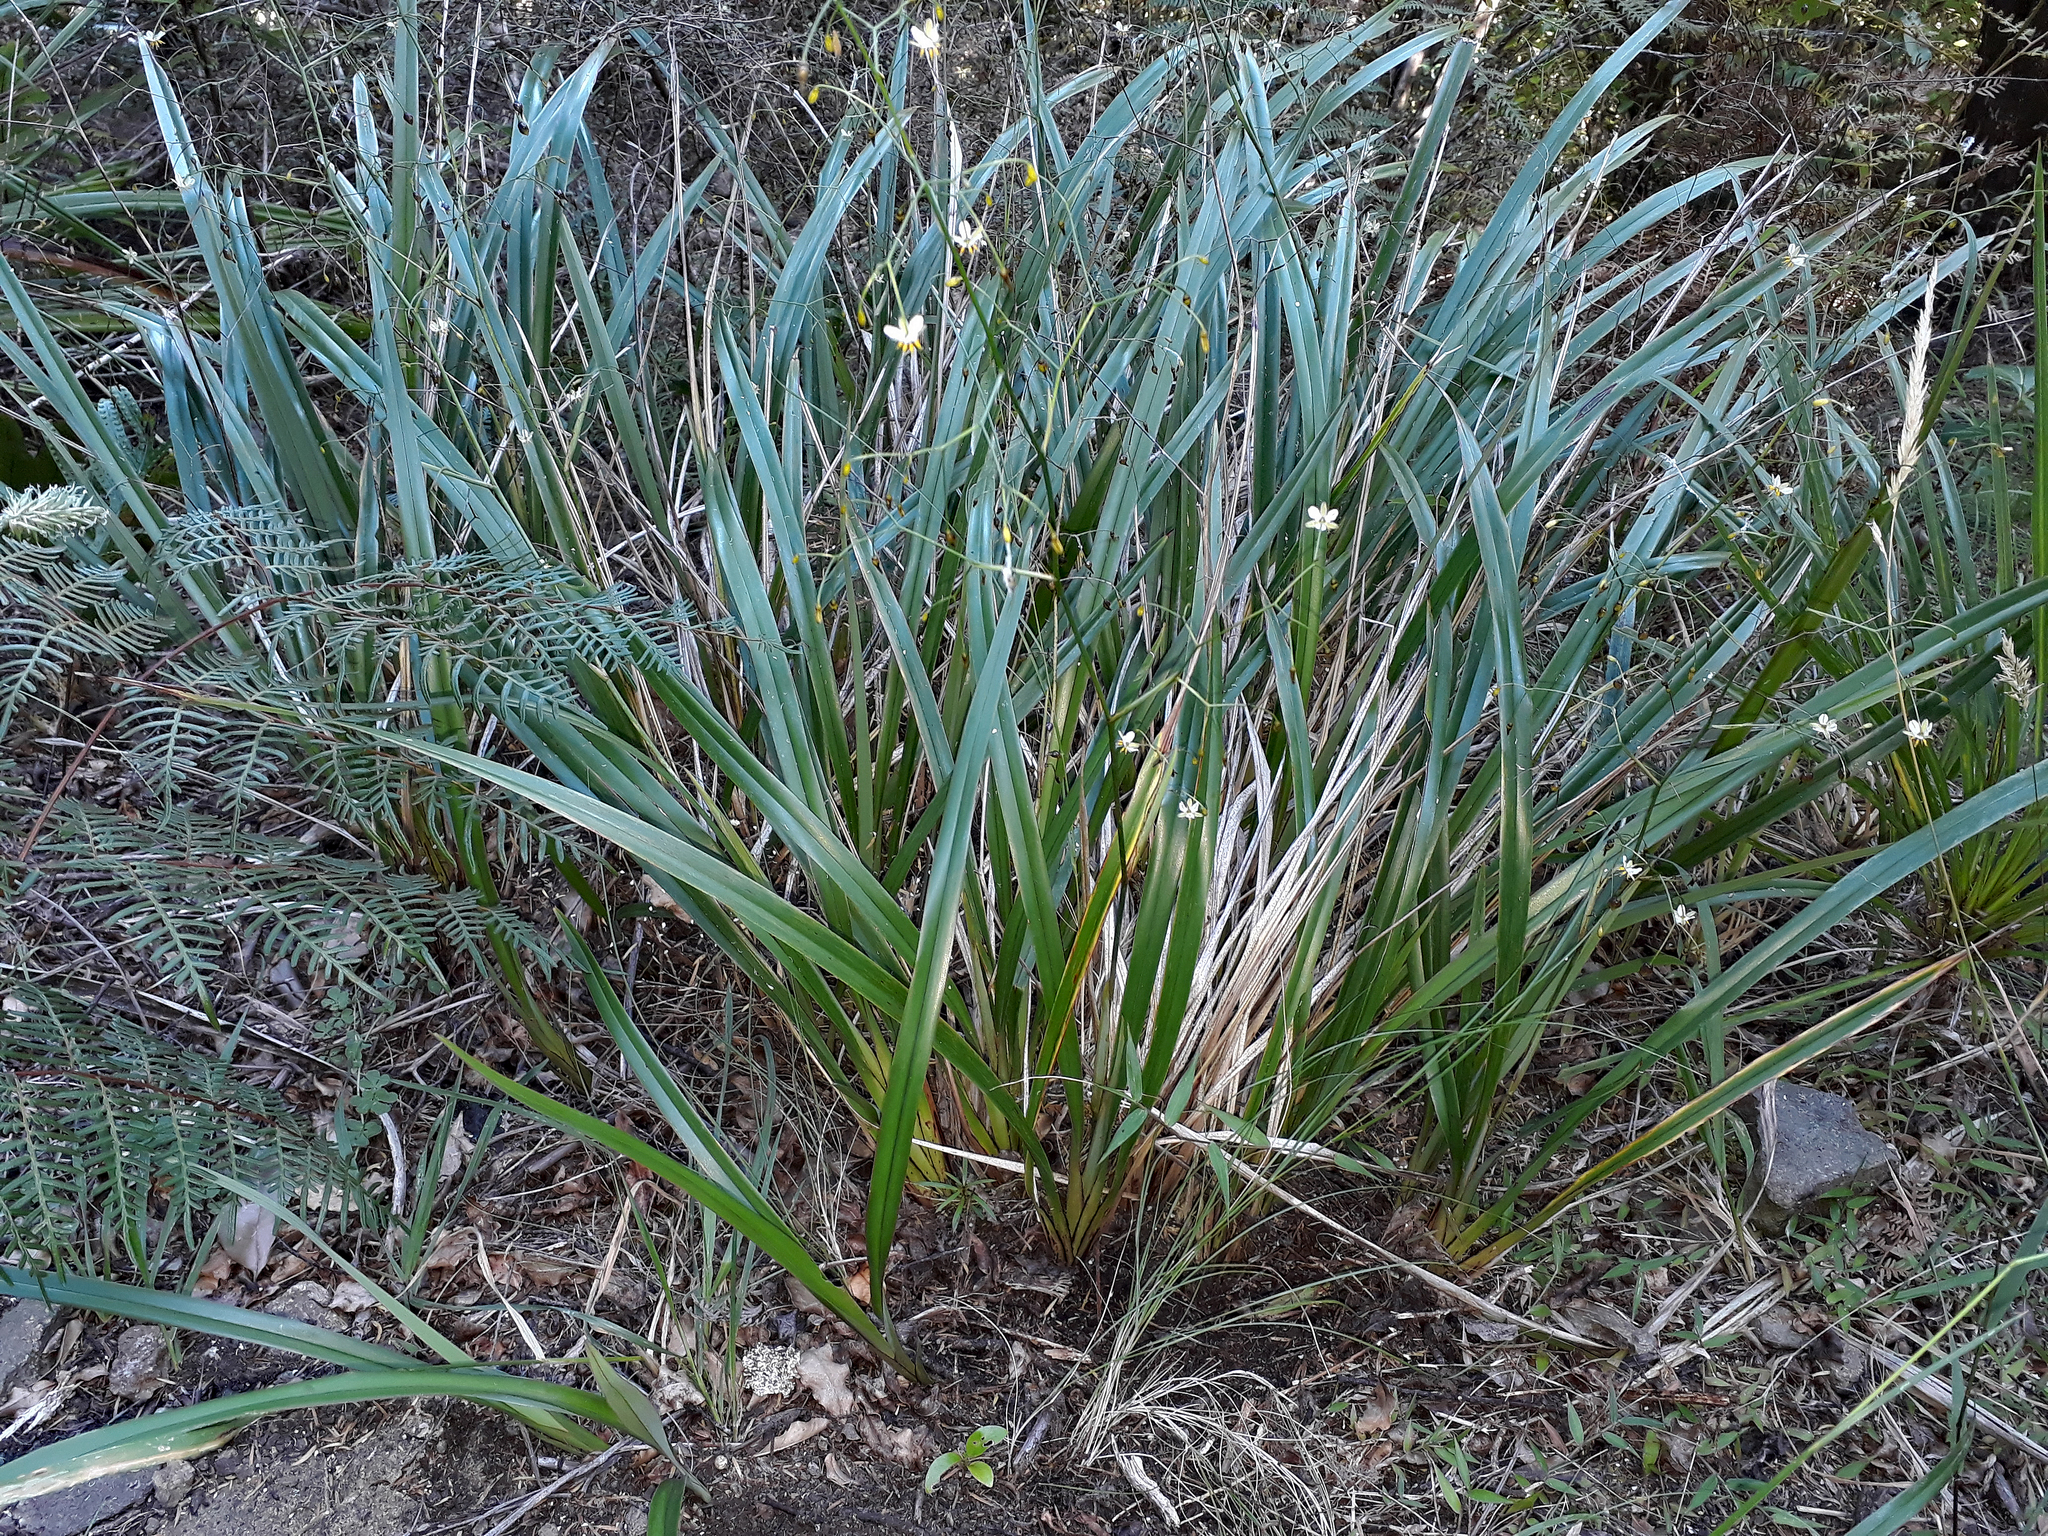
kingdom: Plantae
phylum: Tracheophyta
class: Liliopsida
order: Asparagales
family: Asphodelaceae
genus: Dianella
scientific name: Dianella nigra
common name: New zealand-blueberry
